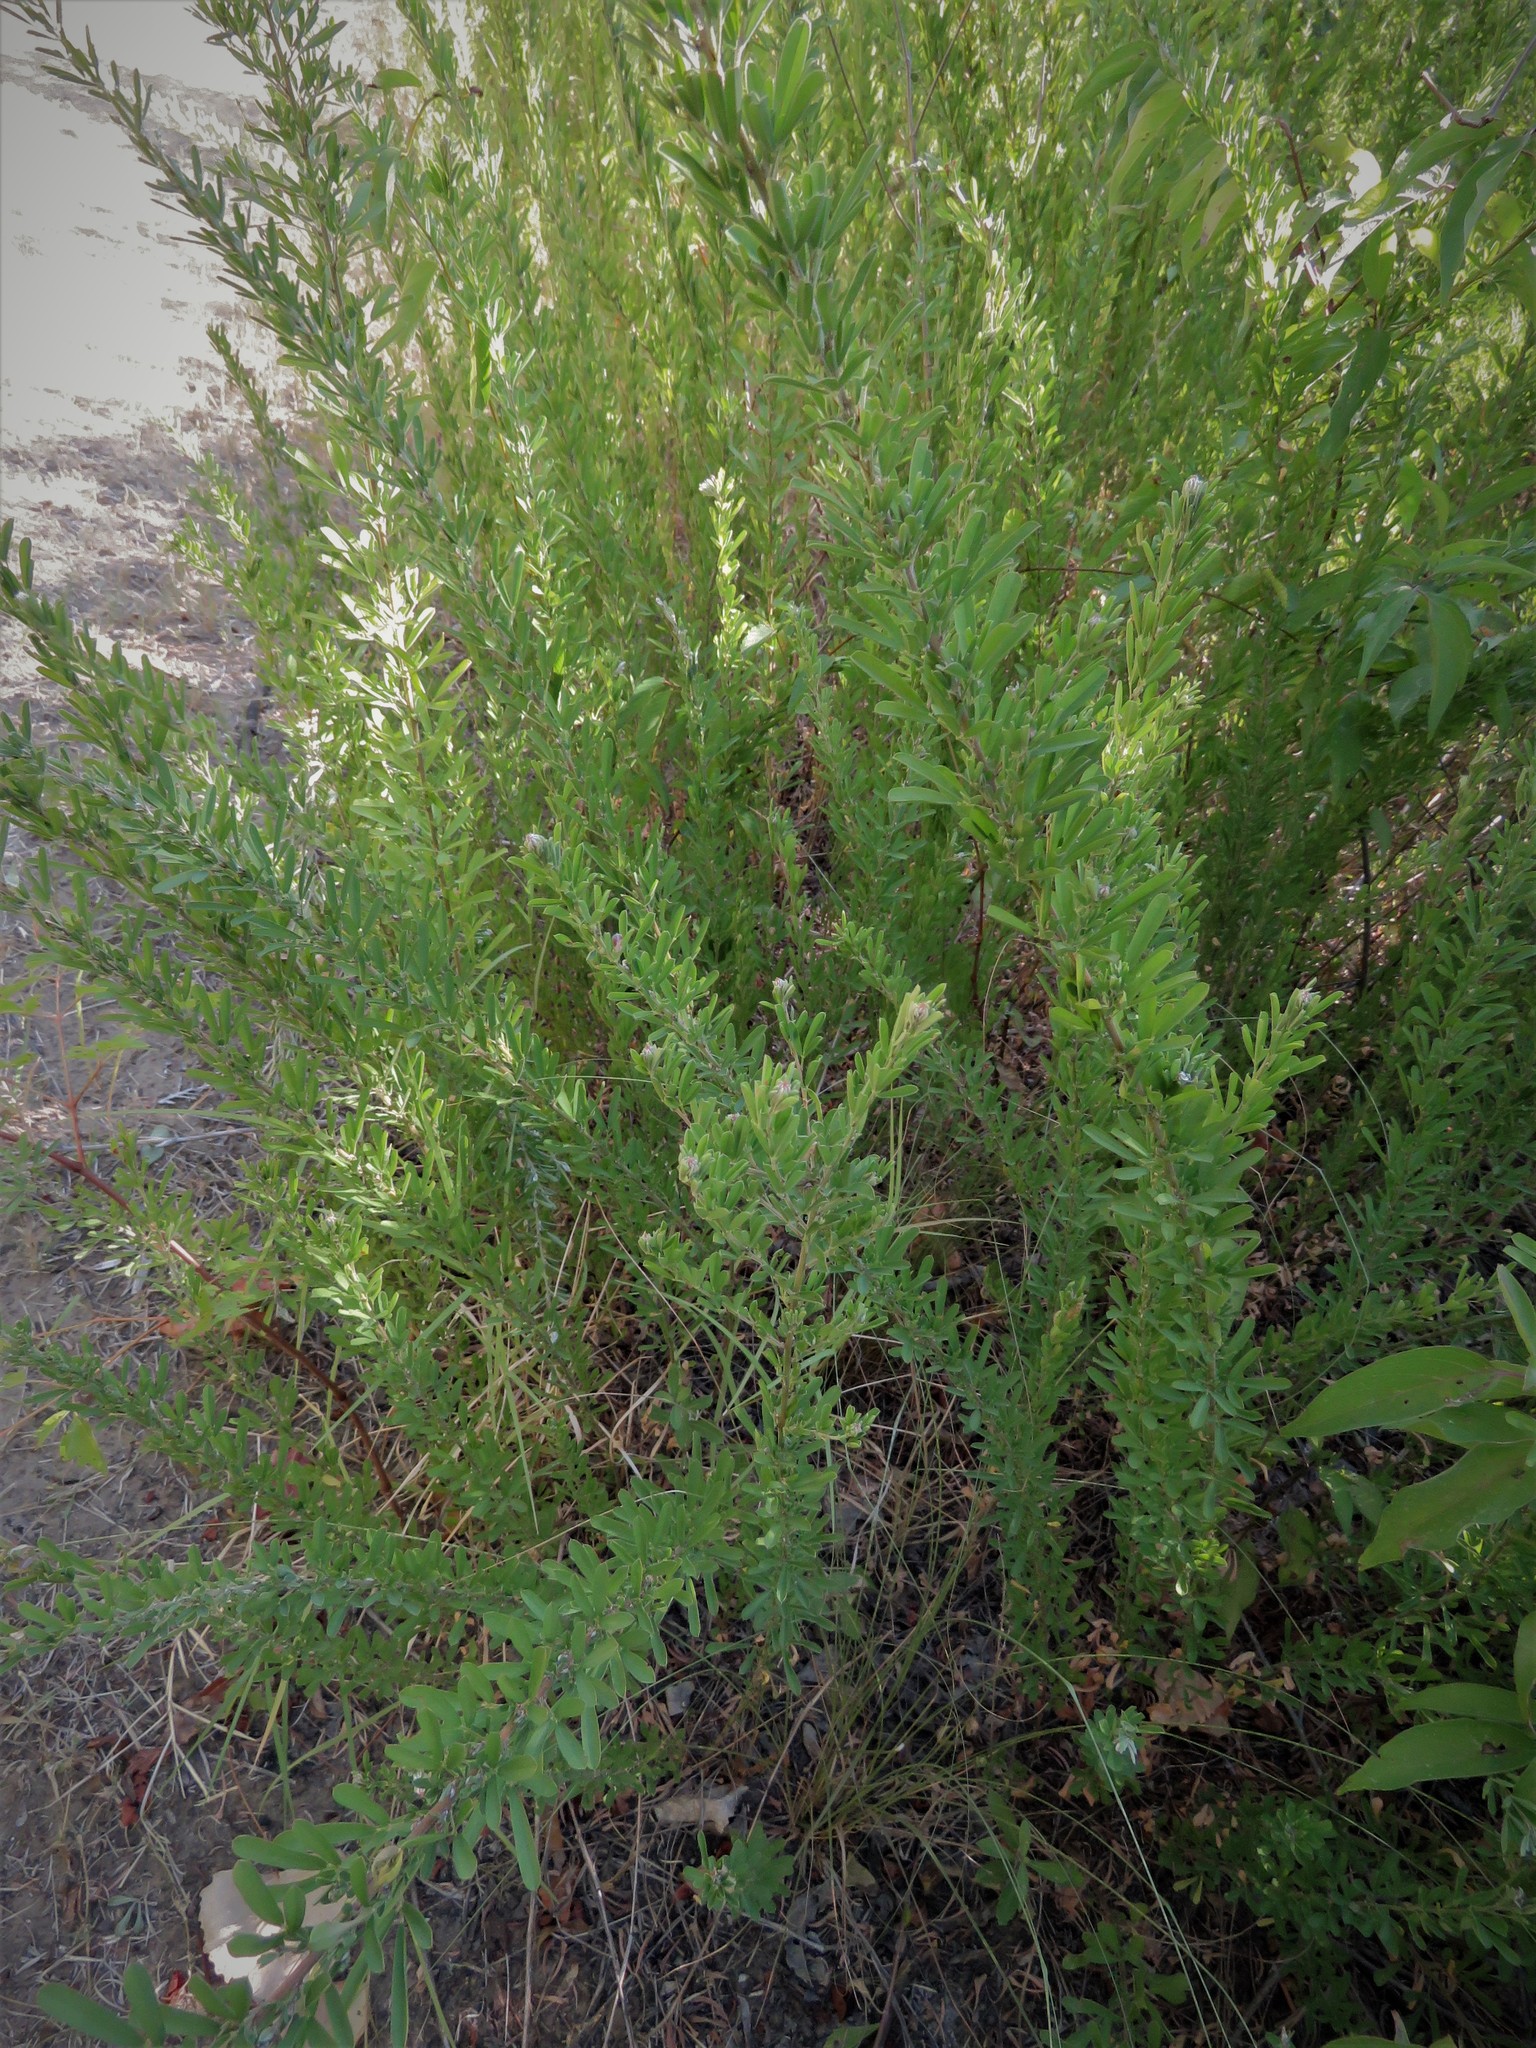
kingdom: Plantae
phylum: Tracheophyta
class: Magnoliopsida
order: Fabales
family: Fabaceae
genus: Lespedeza
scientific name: Lespedeza cuneata
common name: Chinese bush-clover
